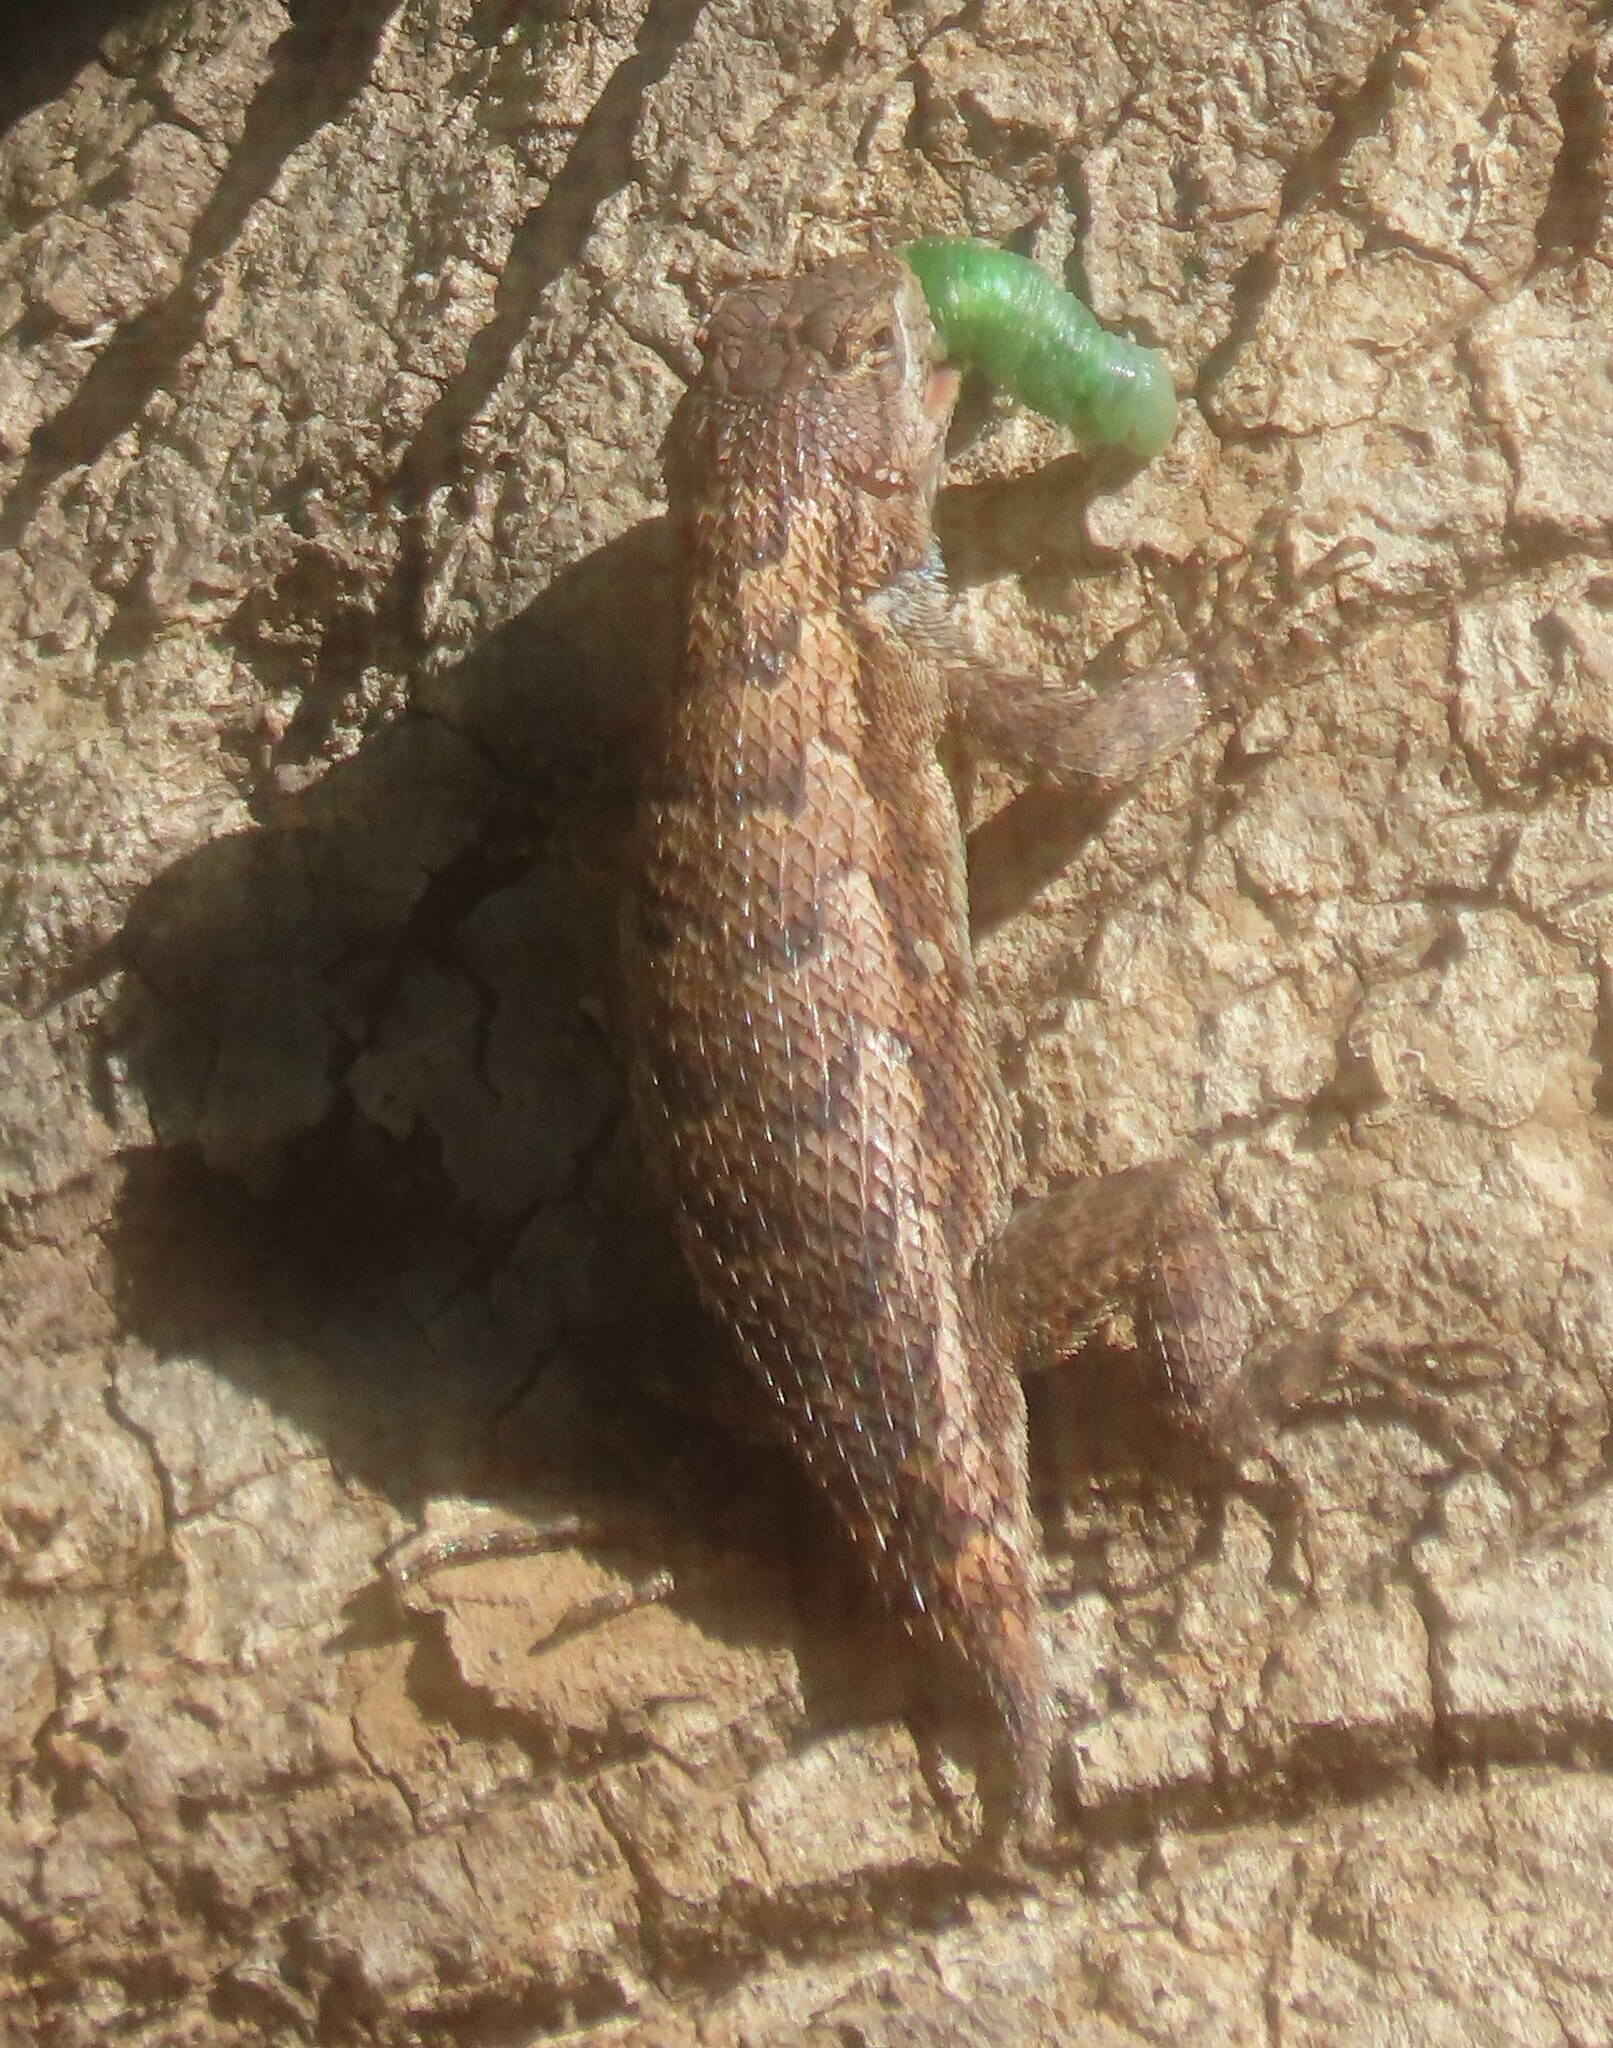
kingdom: Animalia
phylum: Chordata
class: Squamata
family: Phrynosomatidae
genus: Sceloporus
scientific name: Sceloporus undulatus
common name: Eastern fence lizard
